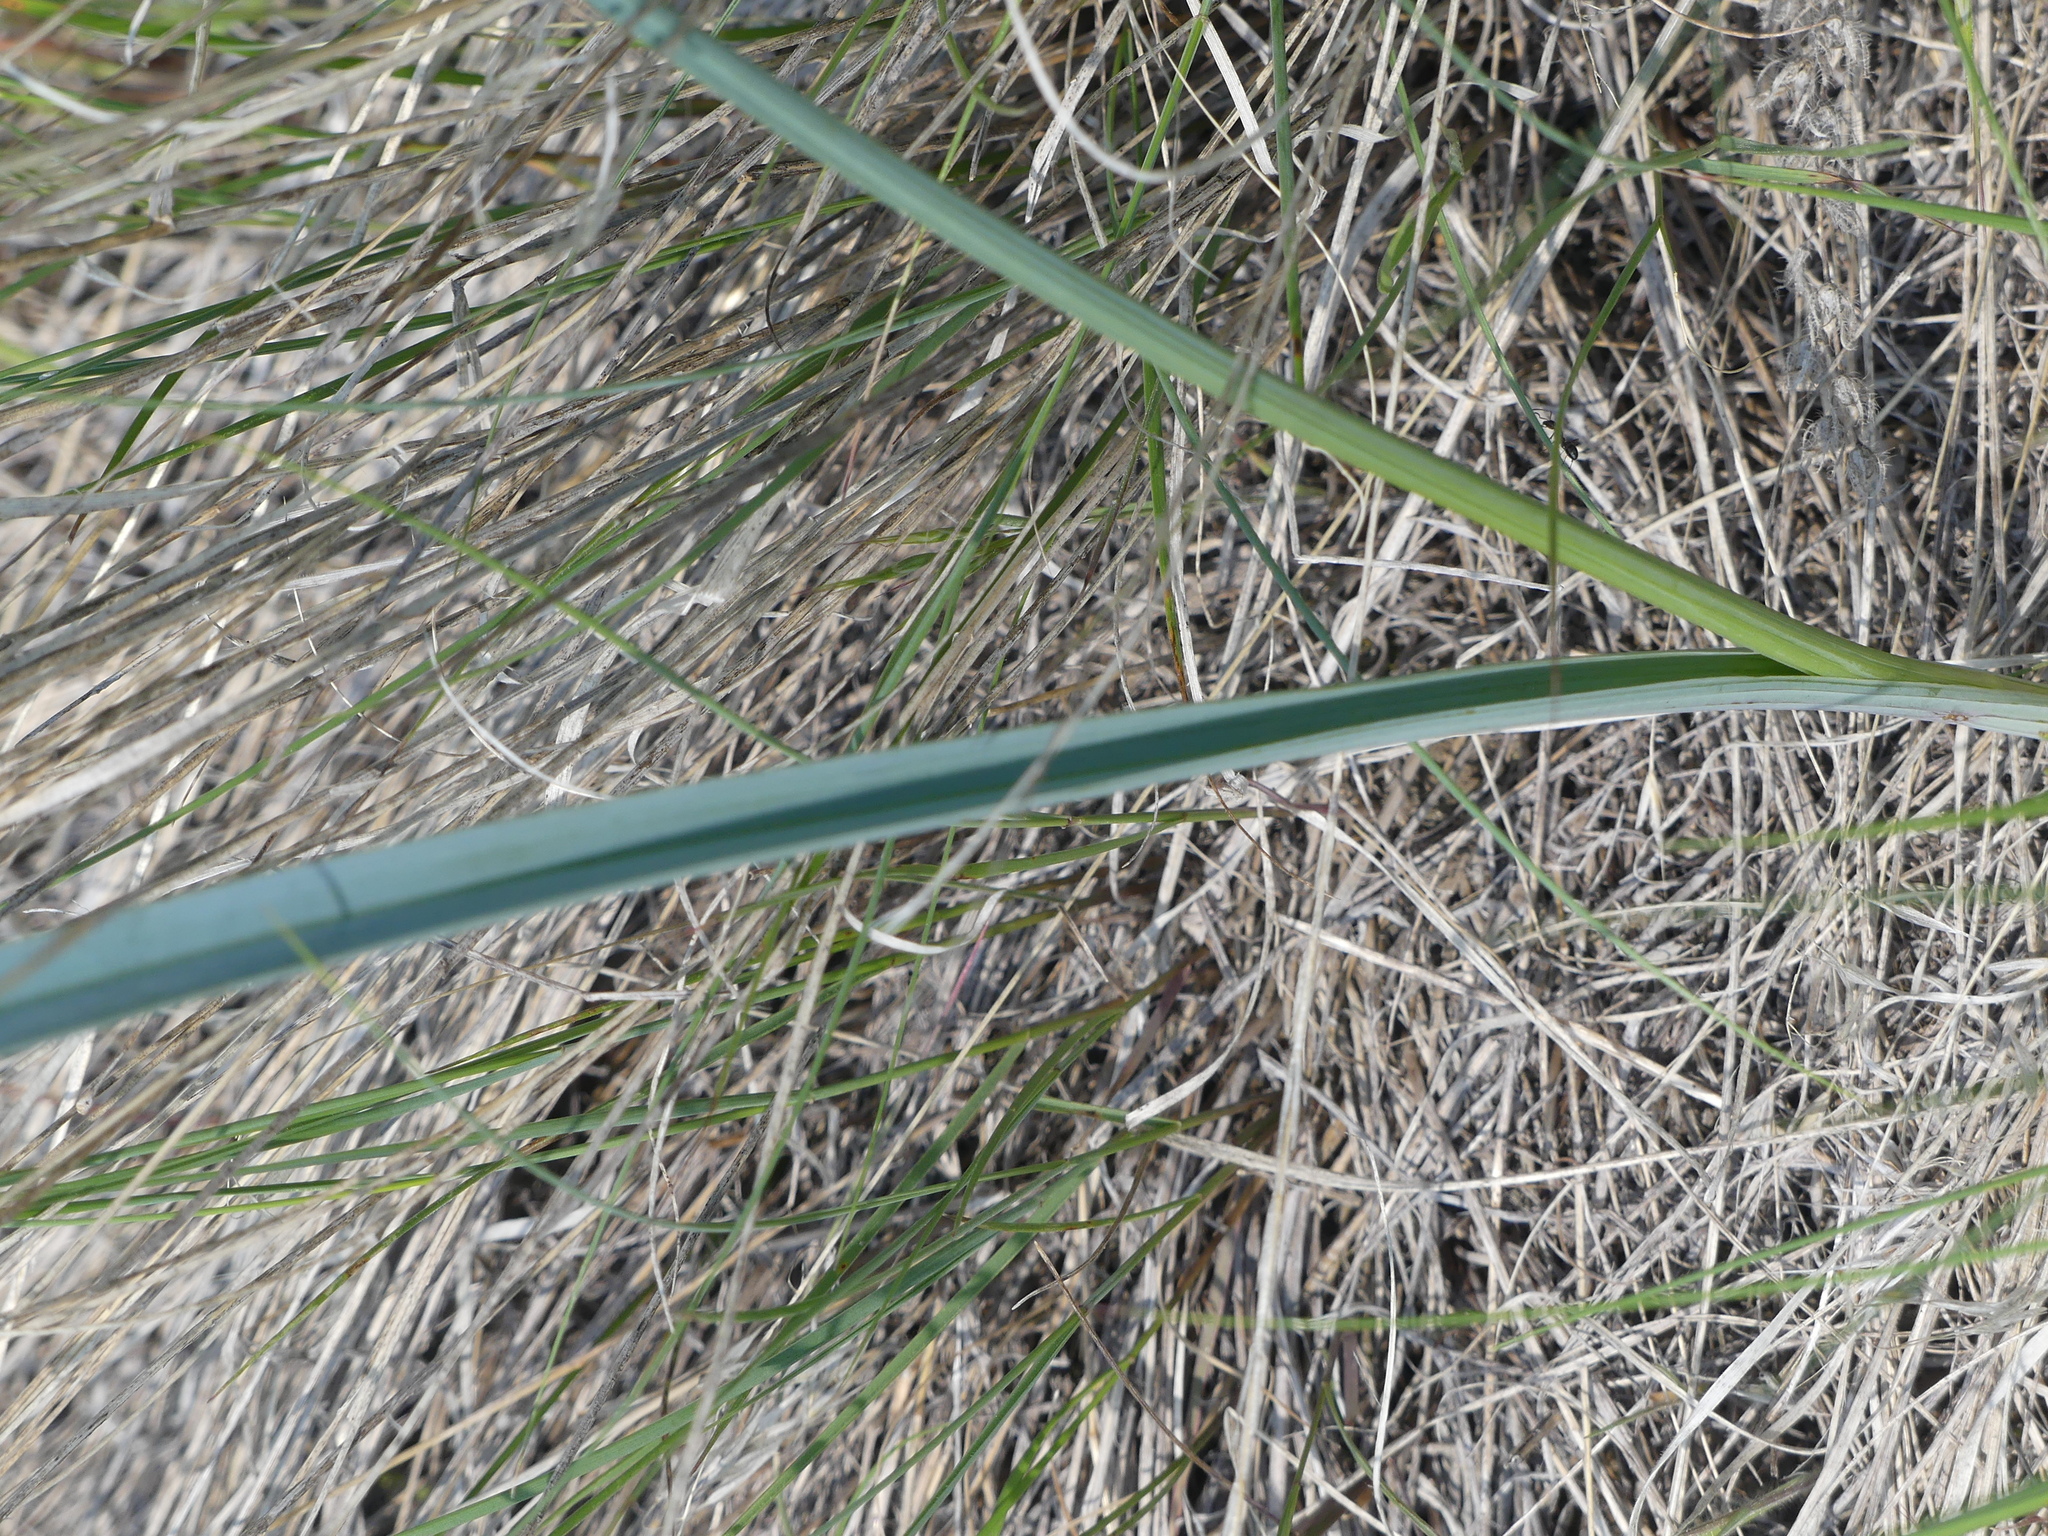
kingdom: Plantae
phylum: Tracheophyta
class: Liliopsida
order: Liliales
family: Liliaceae
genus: Calochortus
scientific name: Calochortus macrocarpus
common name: Green-band mariposa lily
